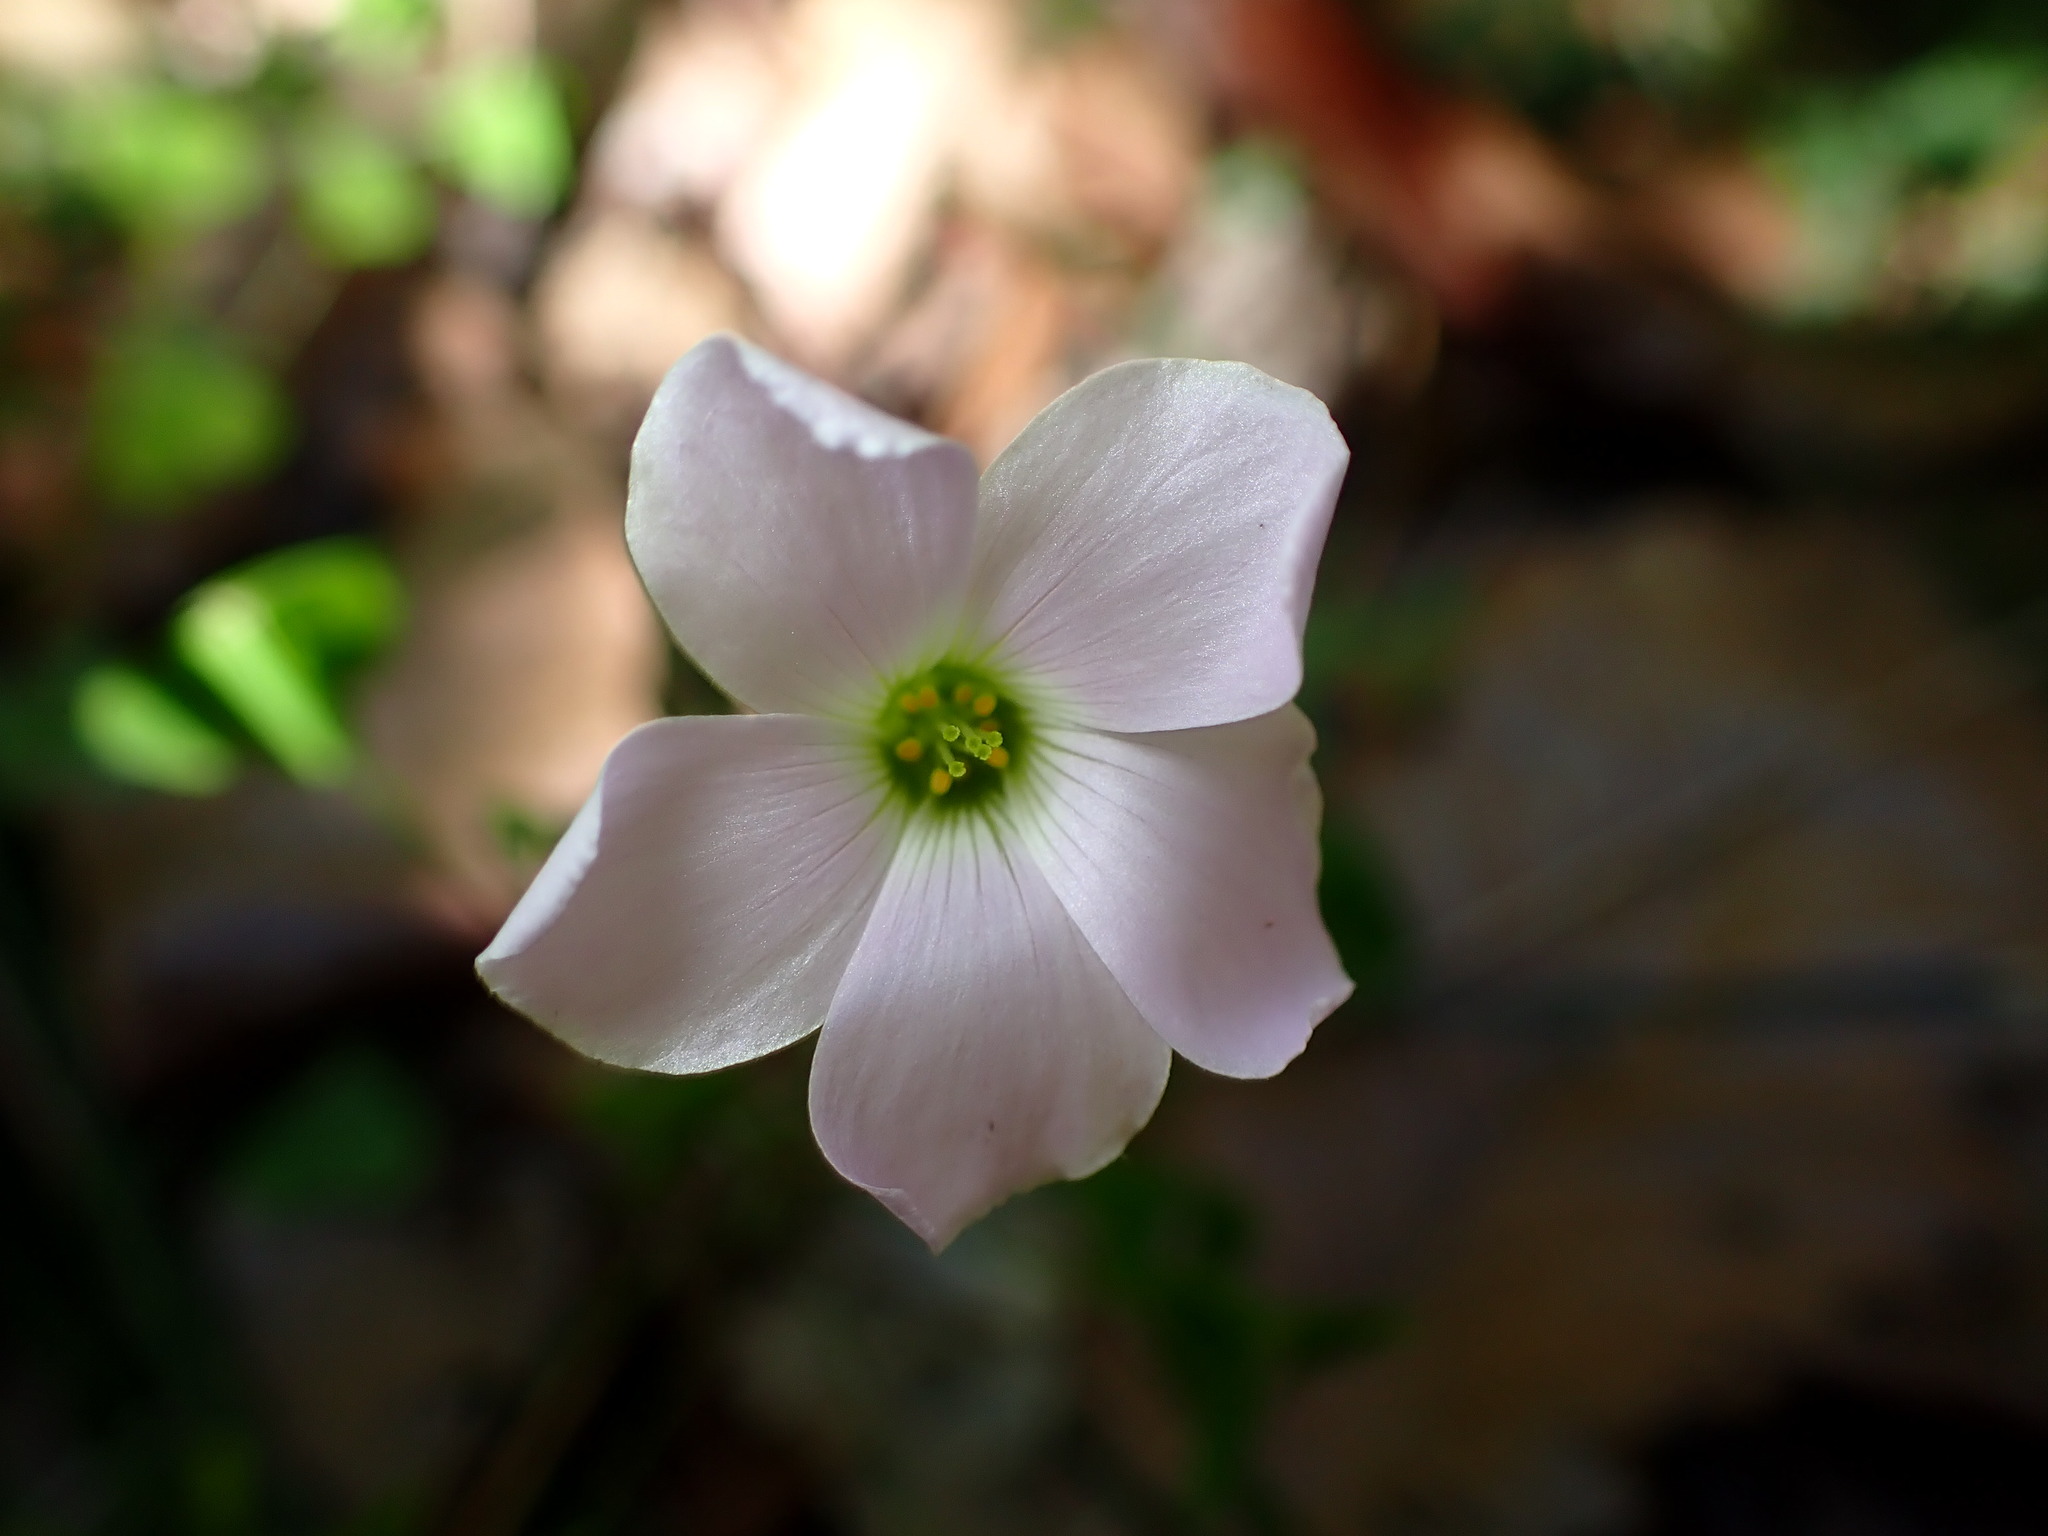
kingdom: Plantae
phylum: Tracheophyta
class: Magnoliopsida
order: Oxalidales
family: Oxalidaceae
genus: Oxalis
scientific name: Oxalis incarnata
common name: Pale pink-sorrel
